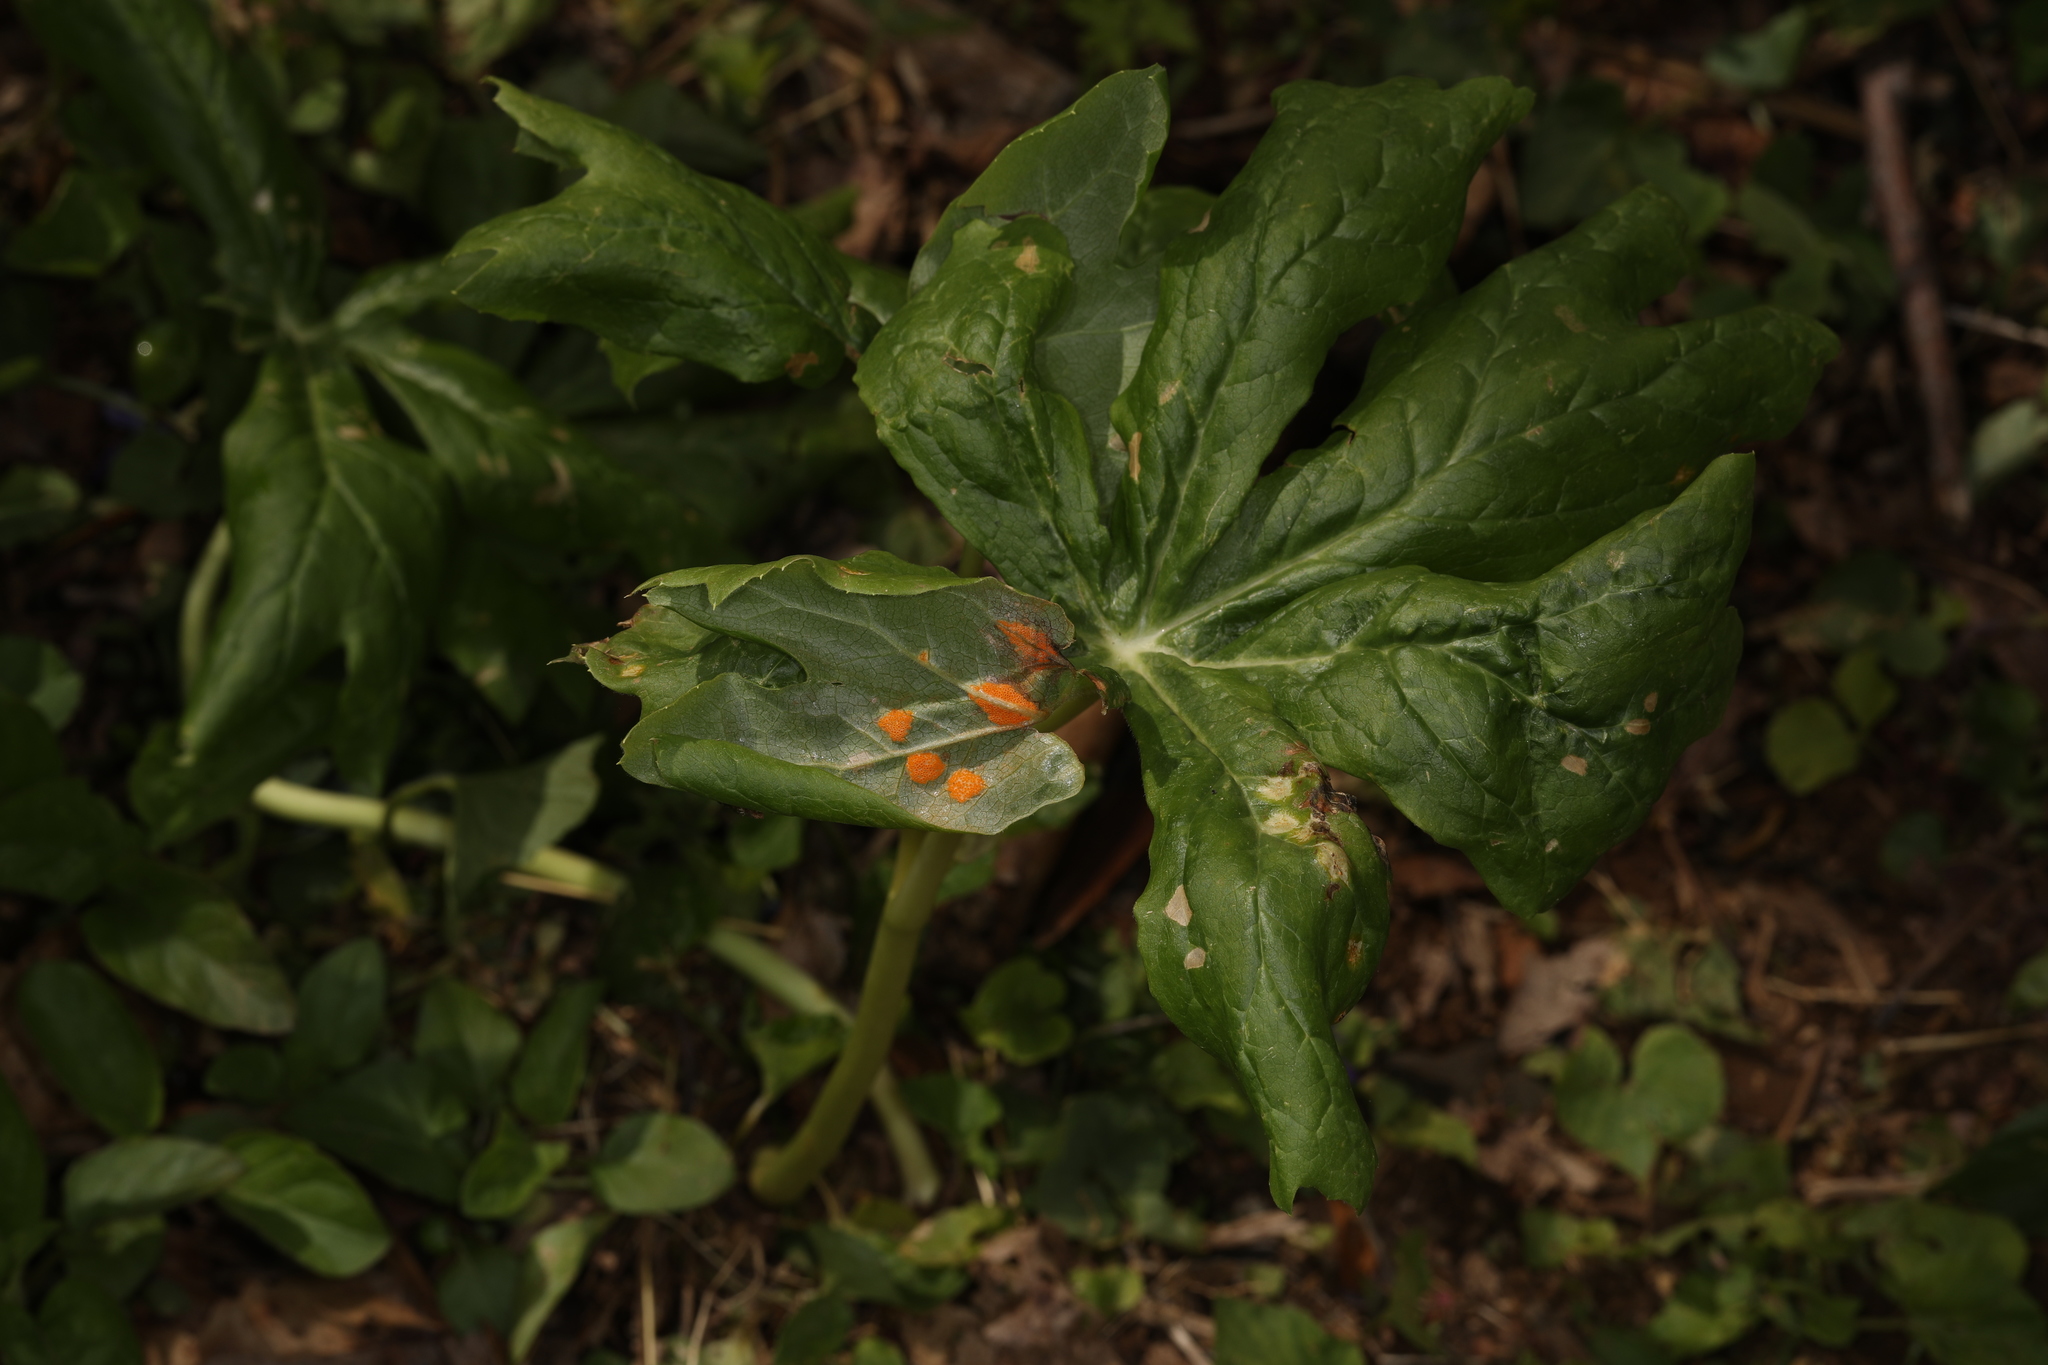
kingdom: Fungi
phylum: Basidiomycota
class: Pucciniomycetes
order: Pucciniales
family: Pucciniaceae
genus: Puccinia
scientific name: Puccinia podophylli
